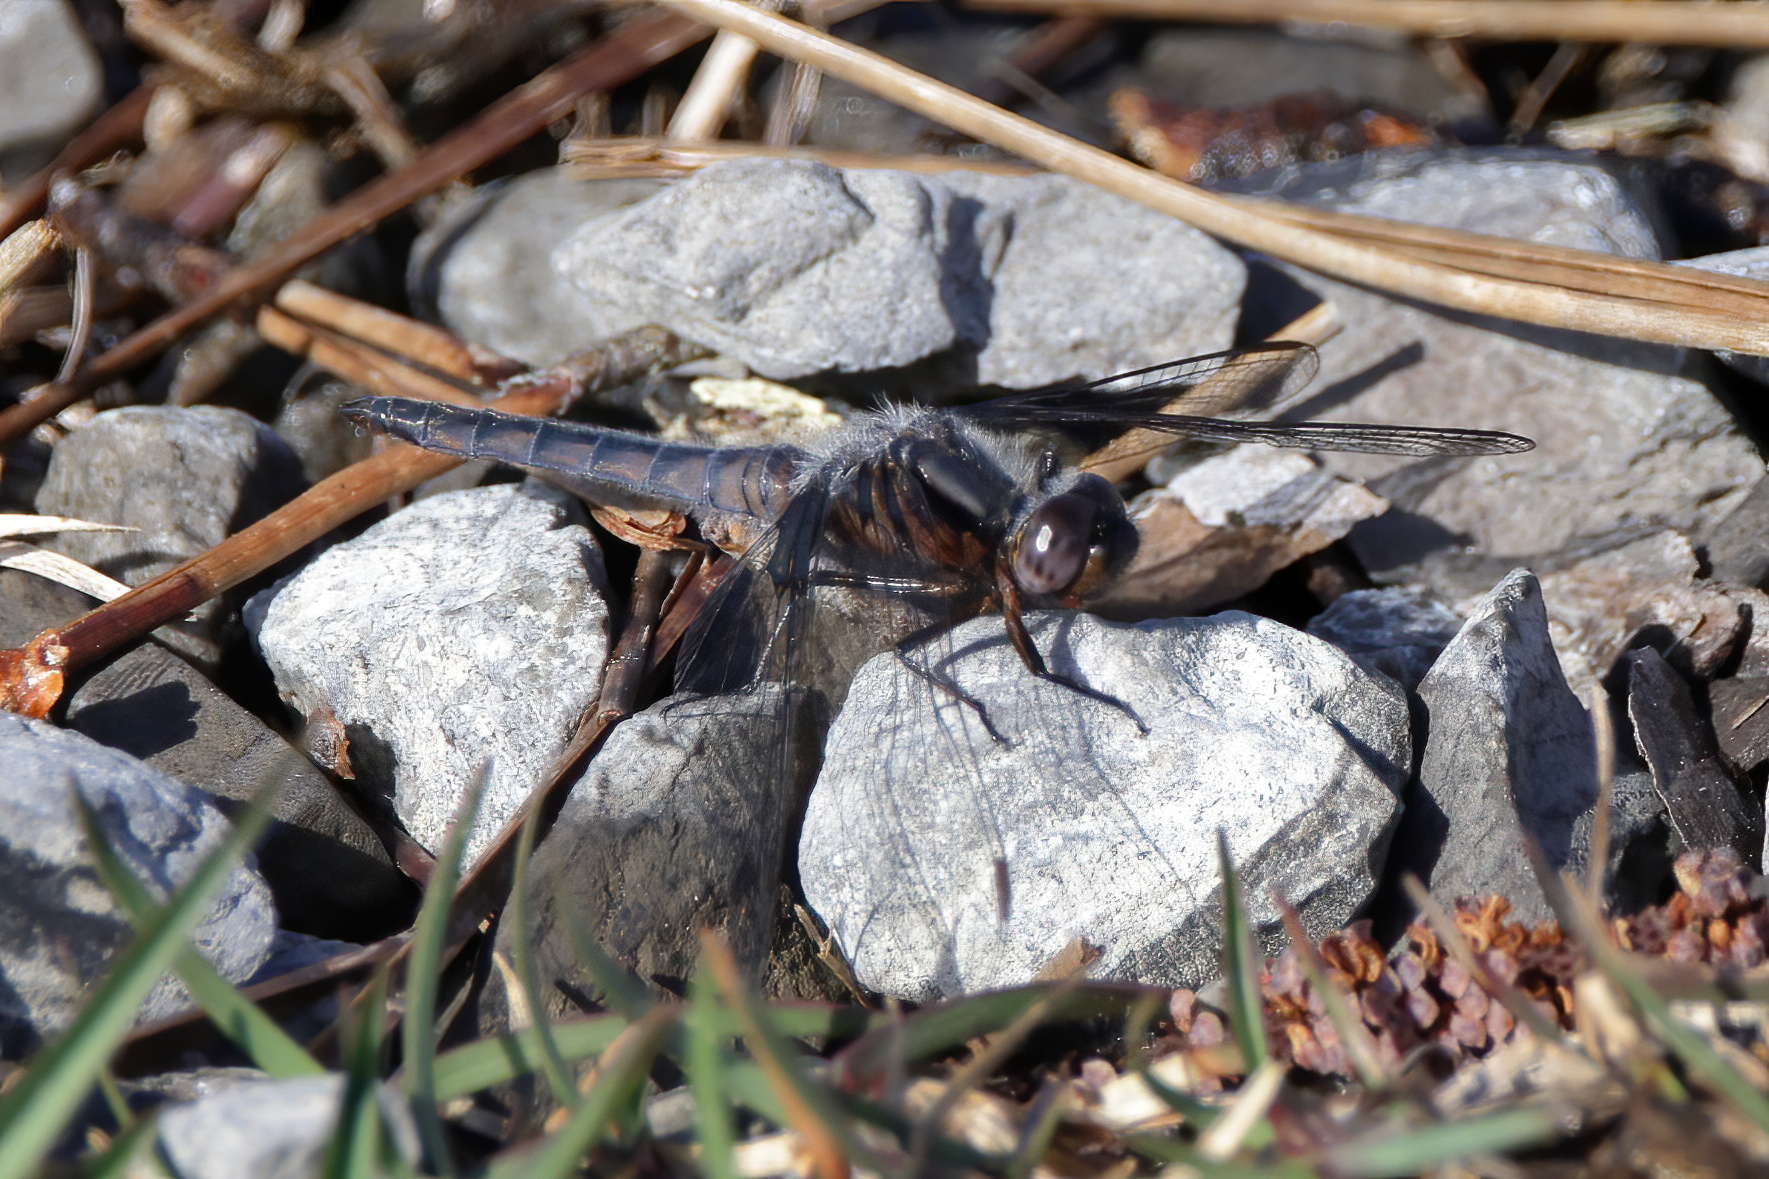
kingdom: Animalia
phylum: Arthropoda
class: Insecta
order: Odonata
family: Libellulidae
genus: Ladona
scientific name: Ladona deplanata
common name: Blue corporal
